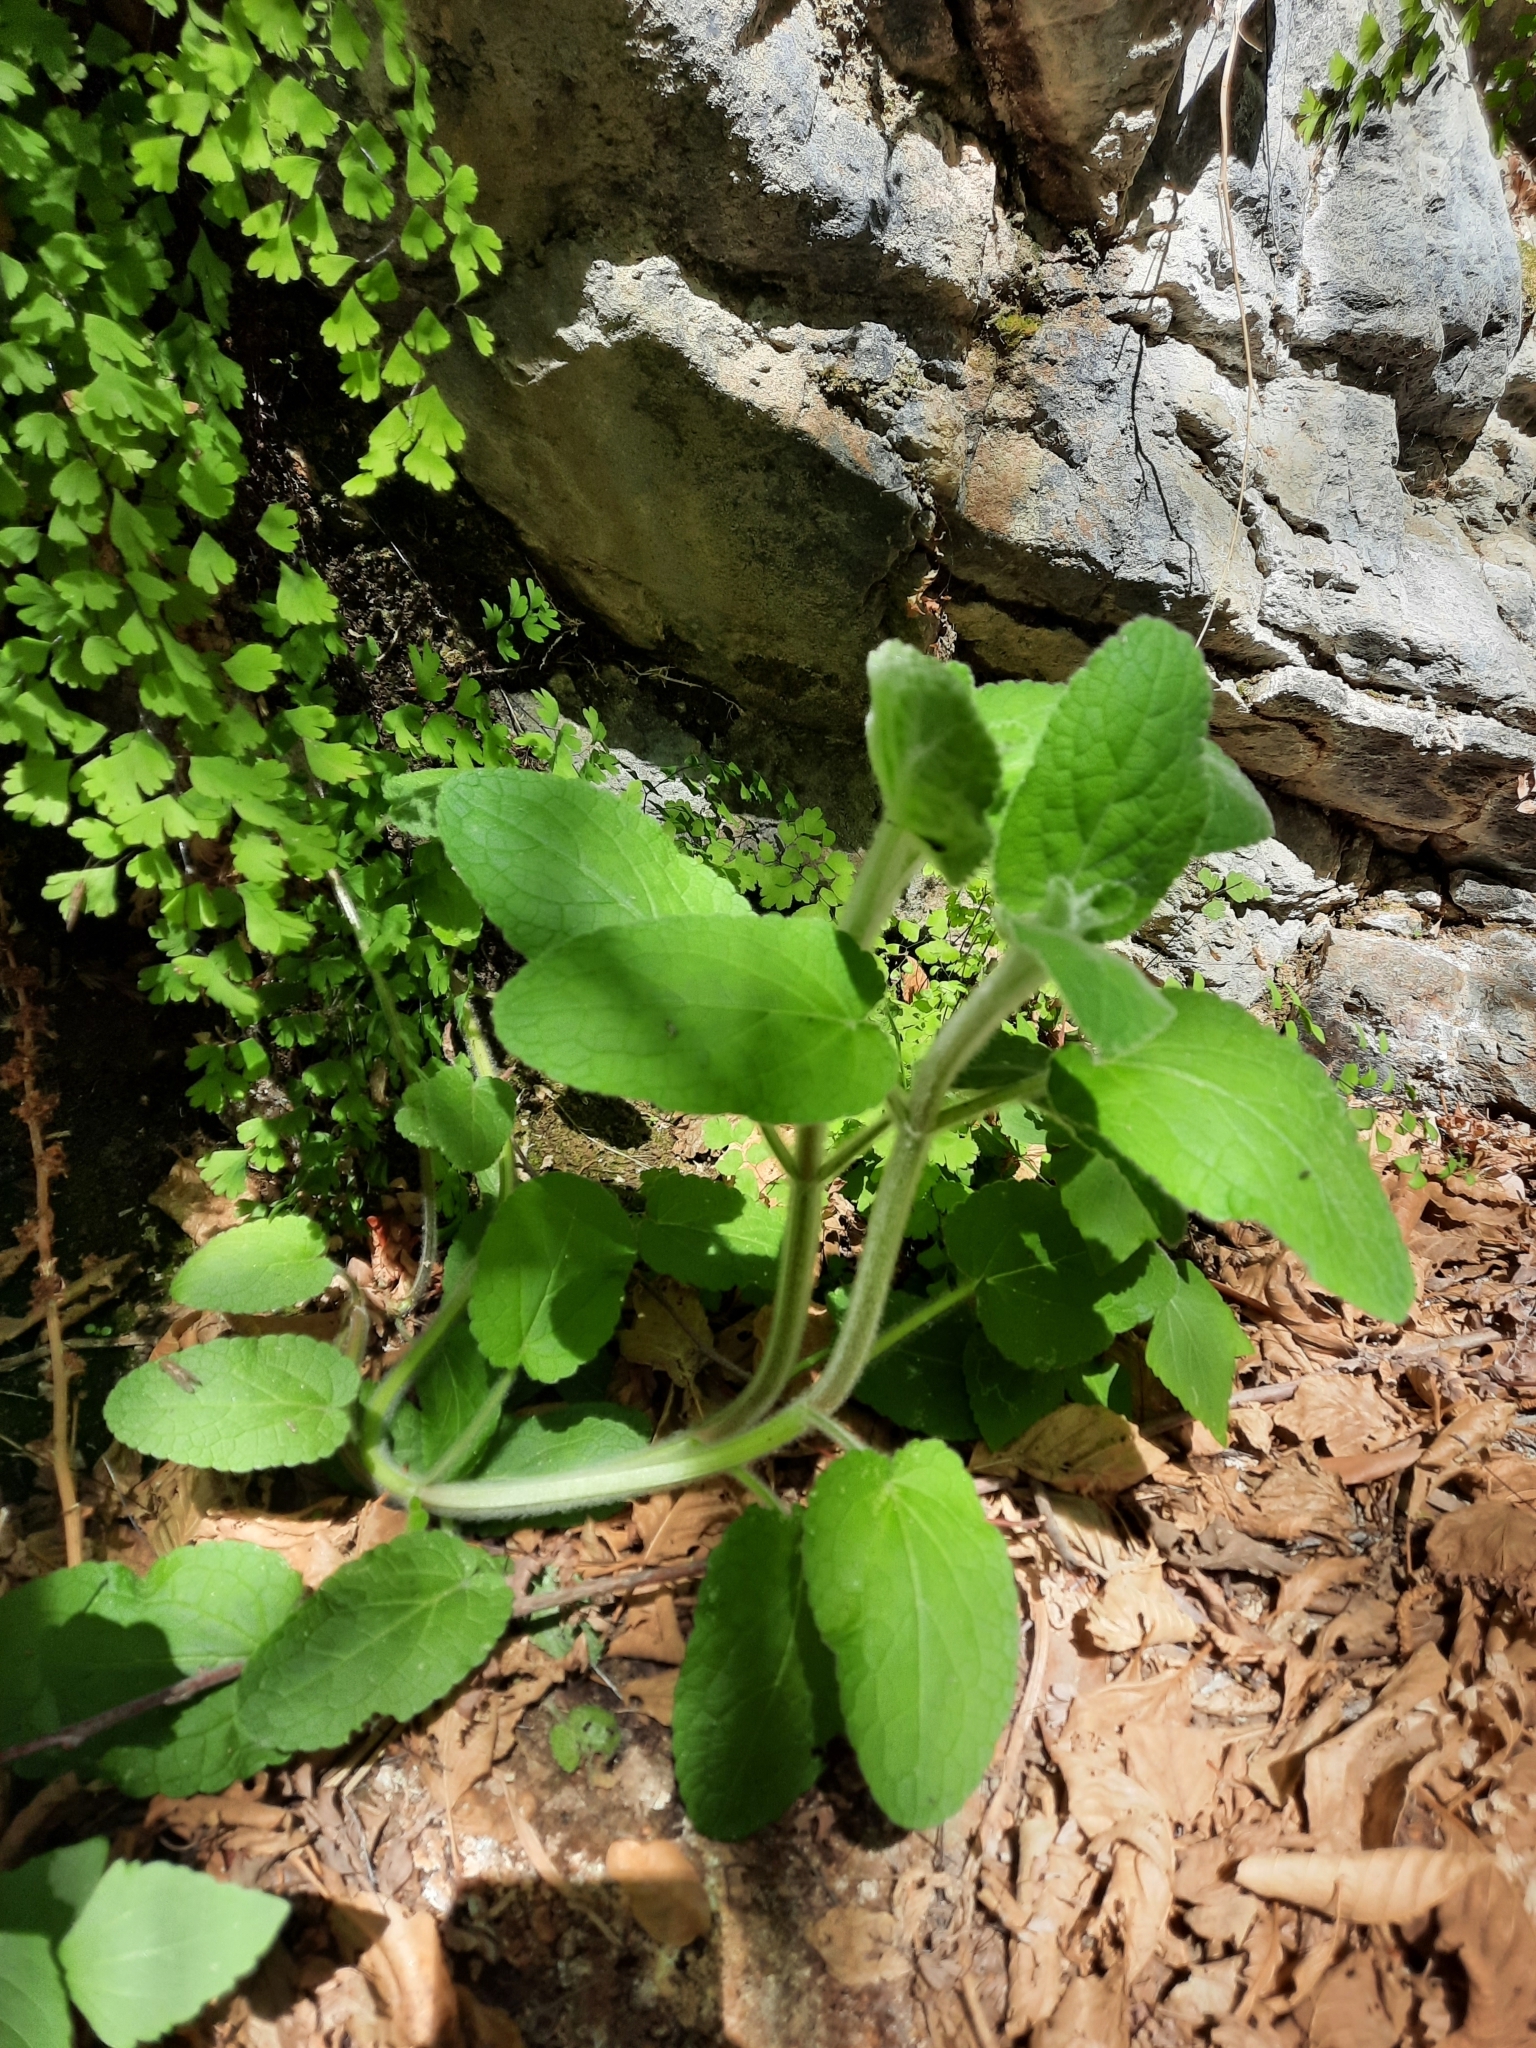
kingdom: Plantae
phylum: Tracheophyta
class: Magnoliopsida
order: Lamiales
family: Lamiaceae
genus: Stachys
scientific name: Stachys albens
